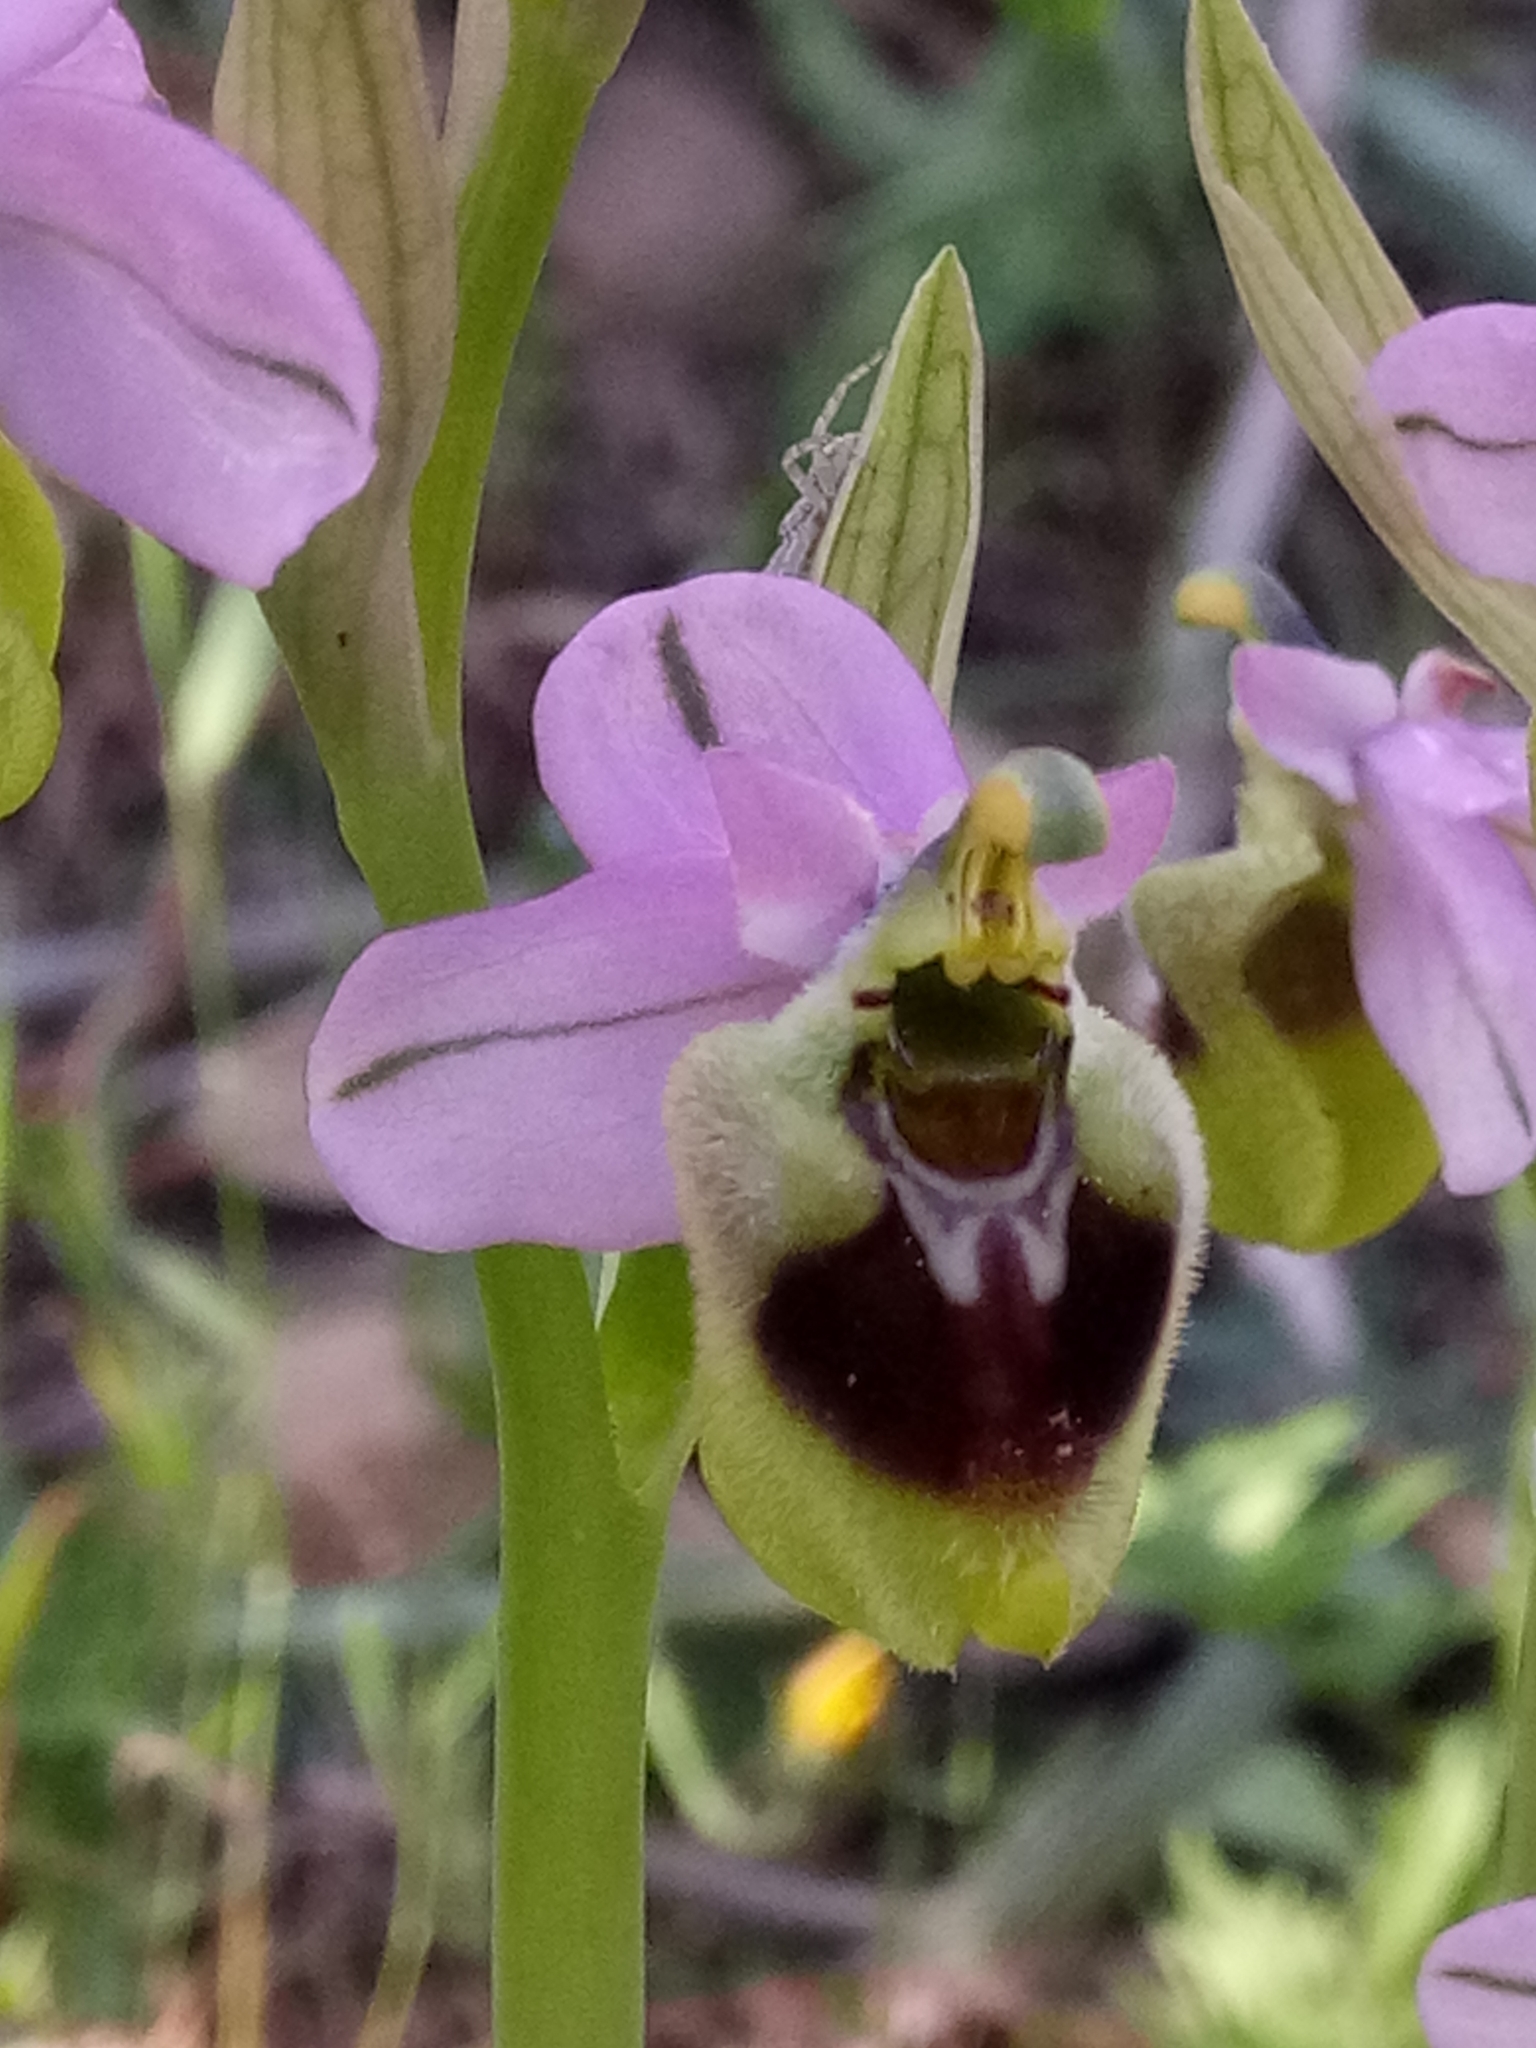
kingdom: Plantae
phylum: Tracheophyta
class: Liliopsida
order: Asparagales
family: Orchidaceae
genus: Ophrys
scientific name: Ophrys tenthredinifera
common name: Sawfly orchid
